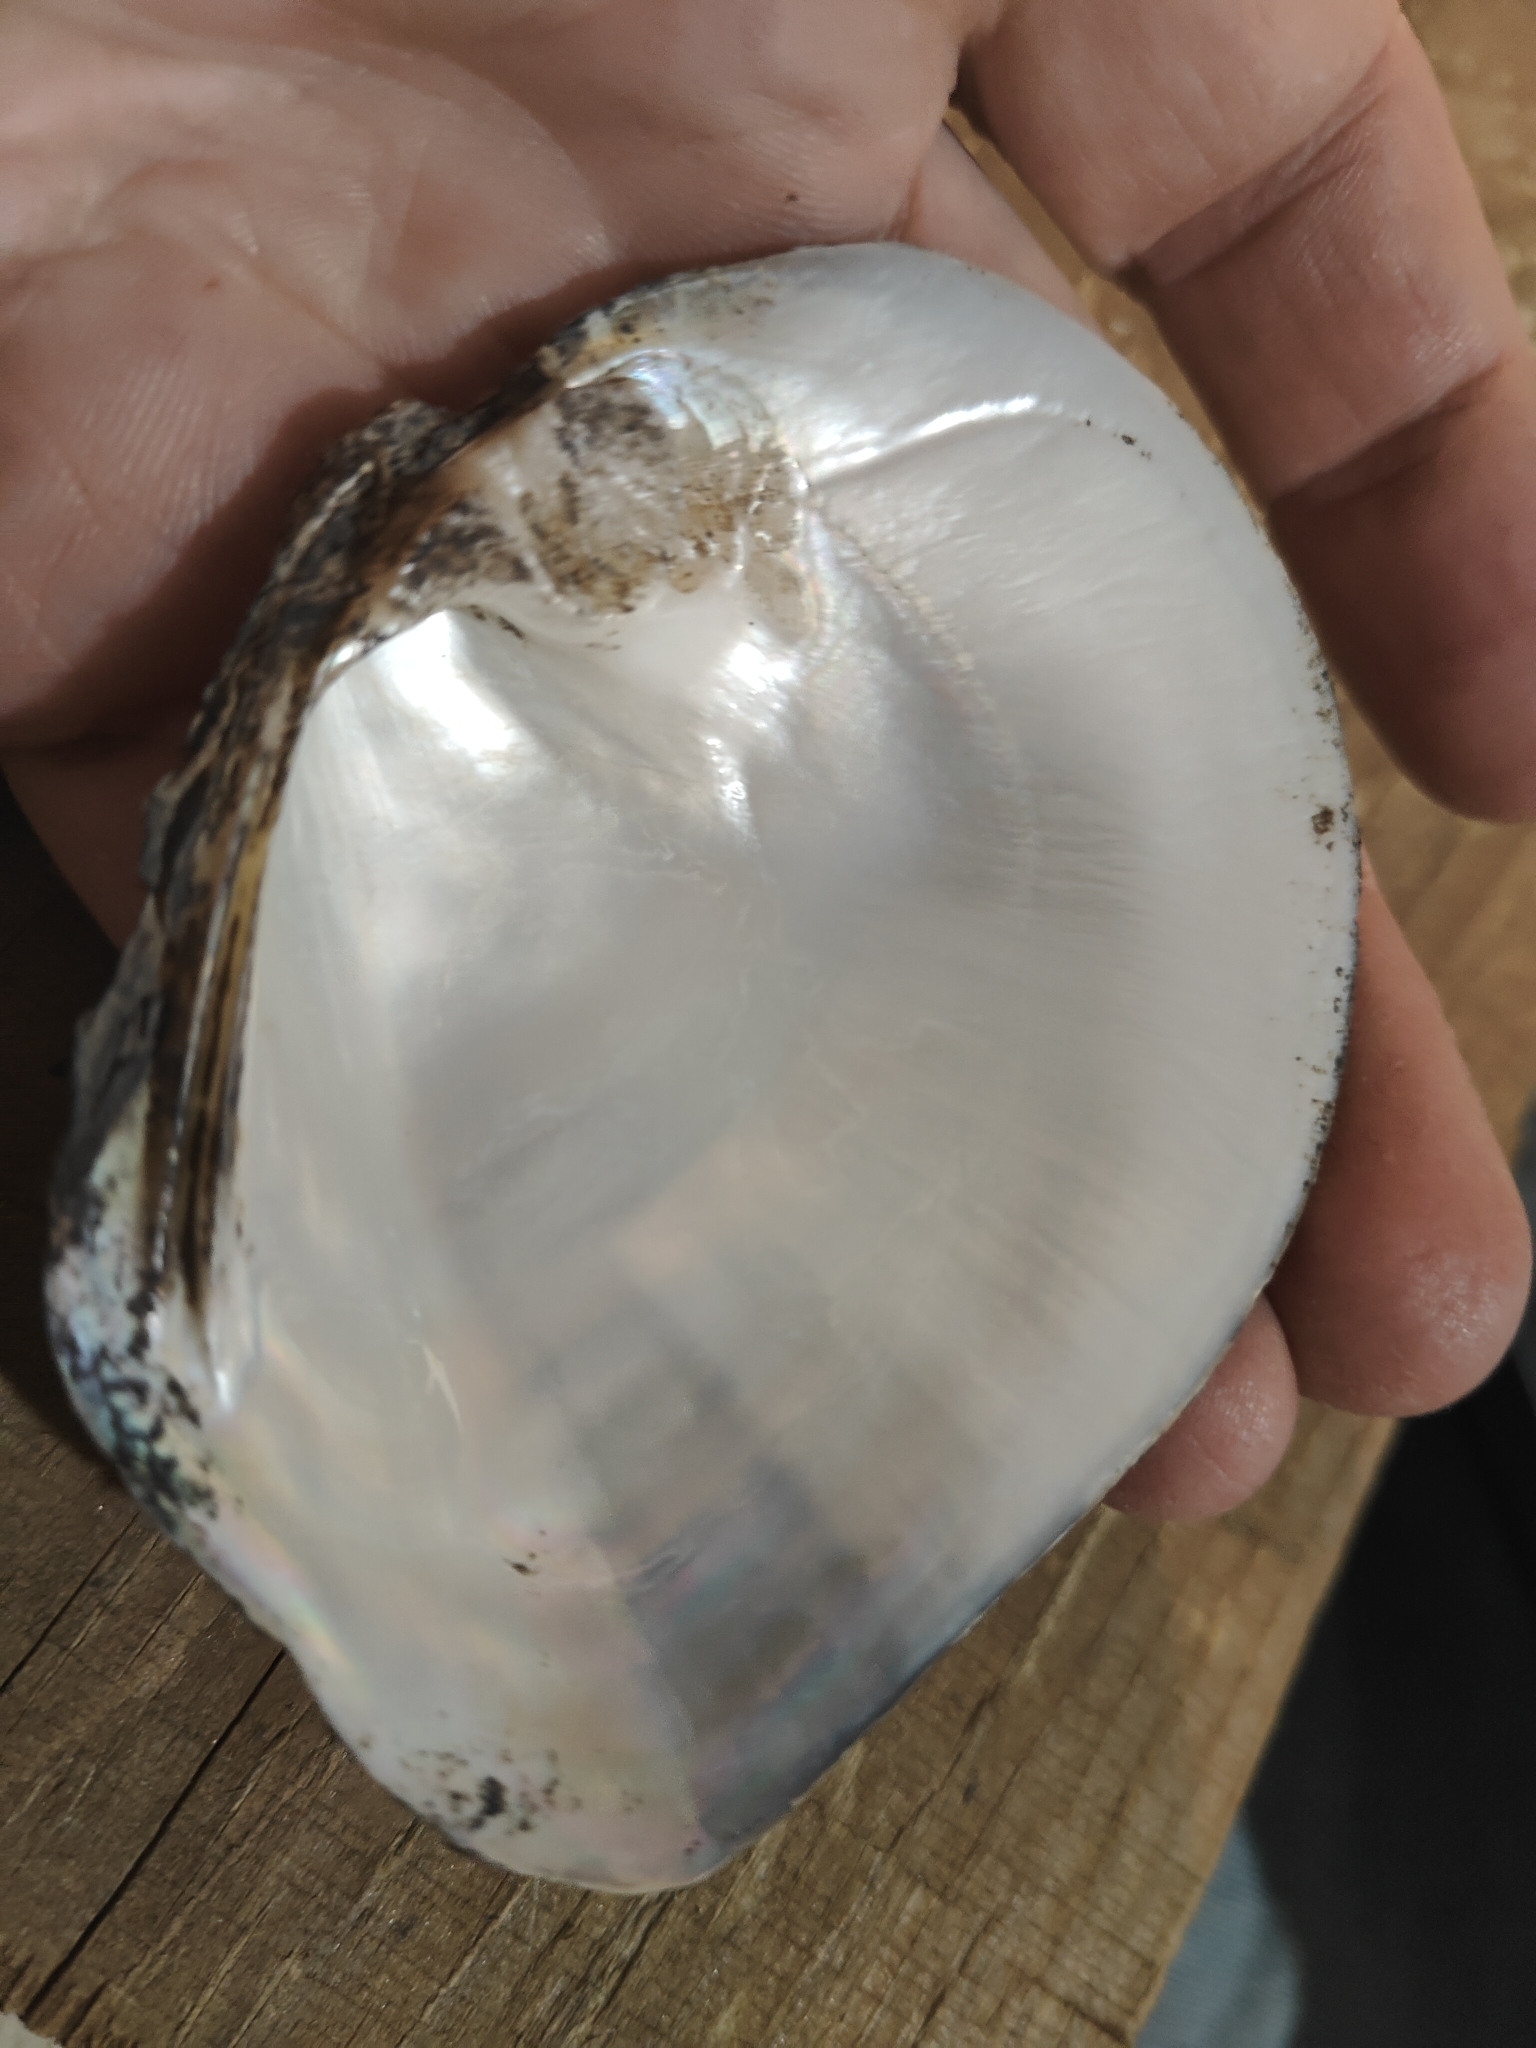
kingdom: Animalia
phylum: Mollusca
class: Bivalvia
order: Unionida
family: Unionidae
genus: Quadrula
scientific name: Quadrula quadrula
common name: Mapleleaf
